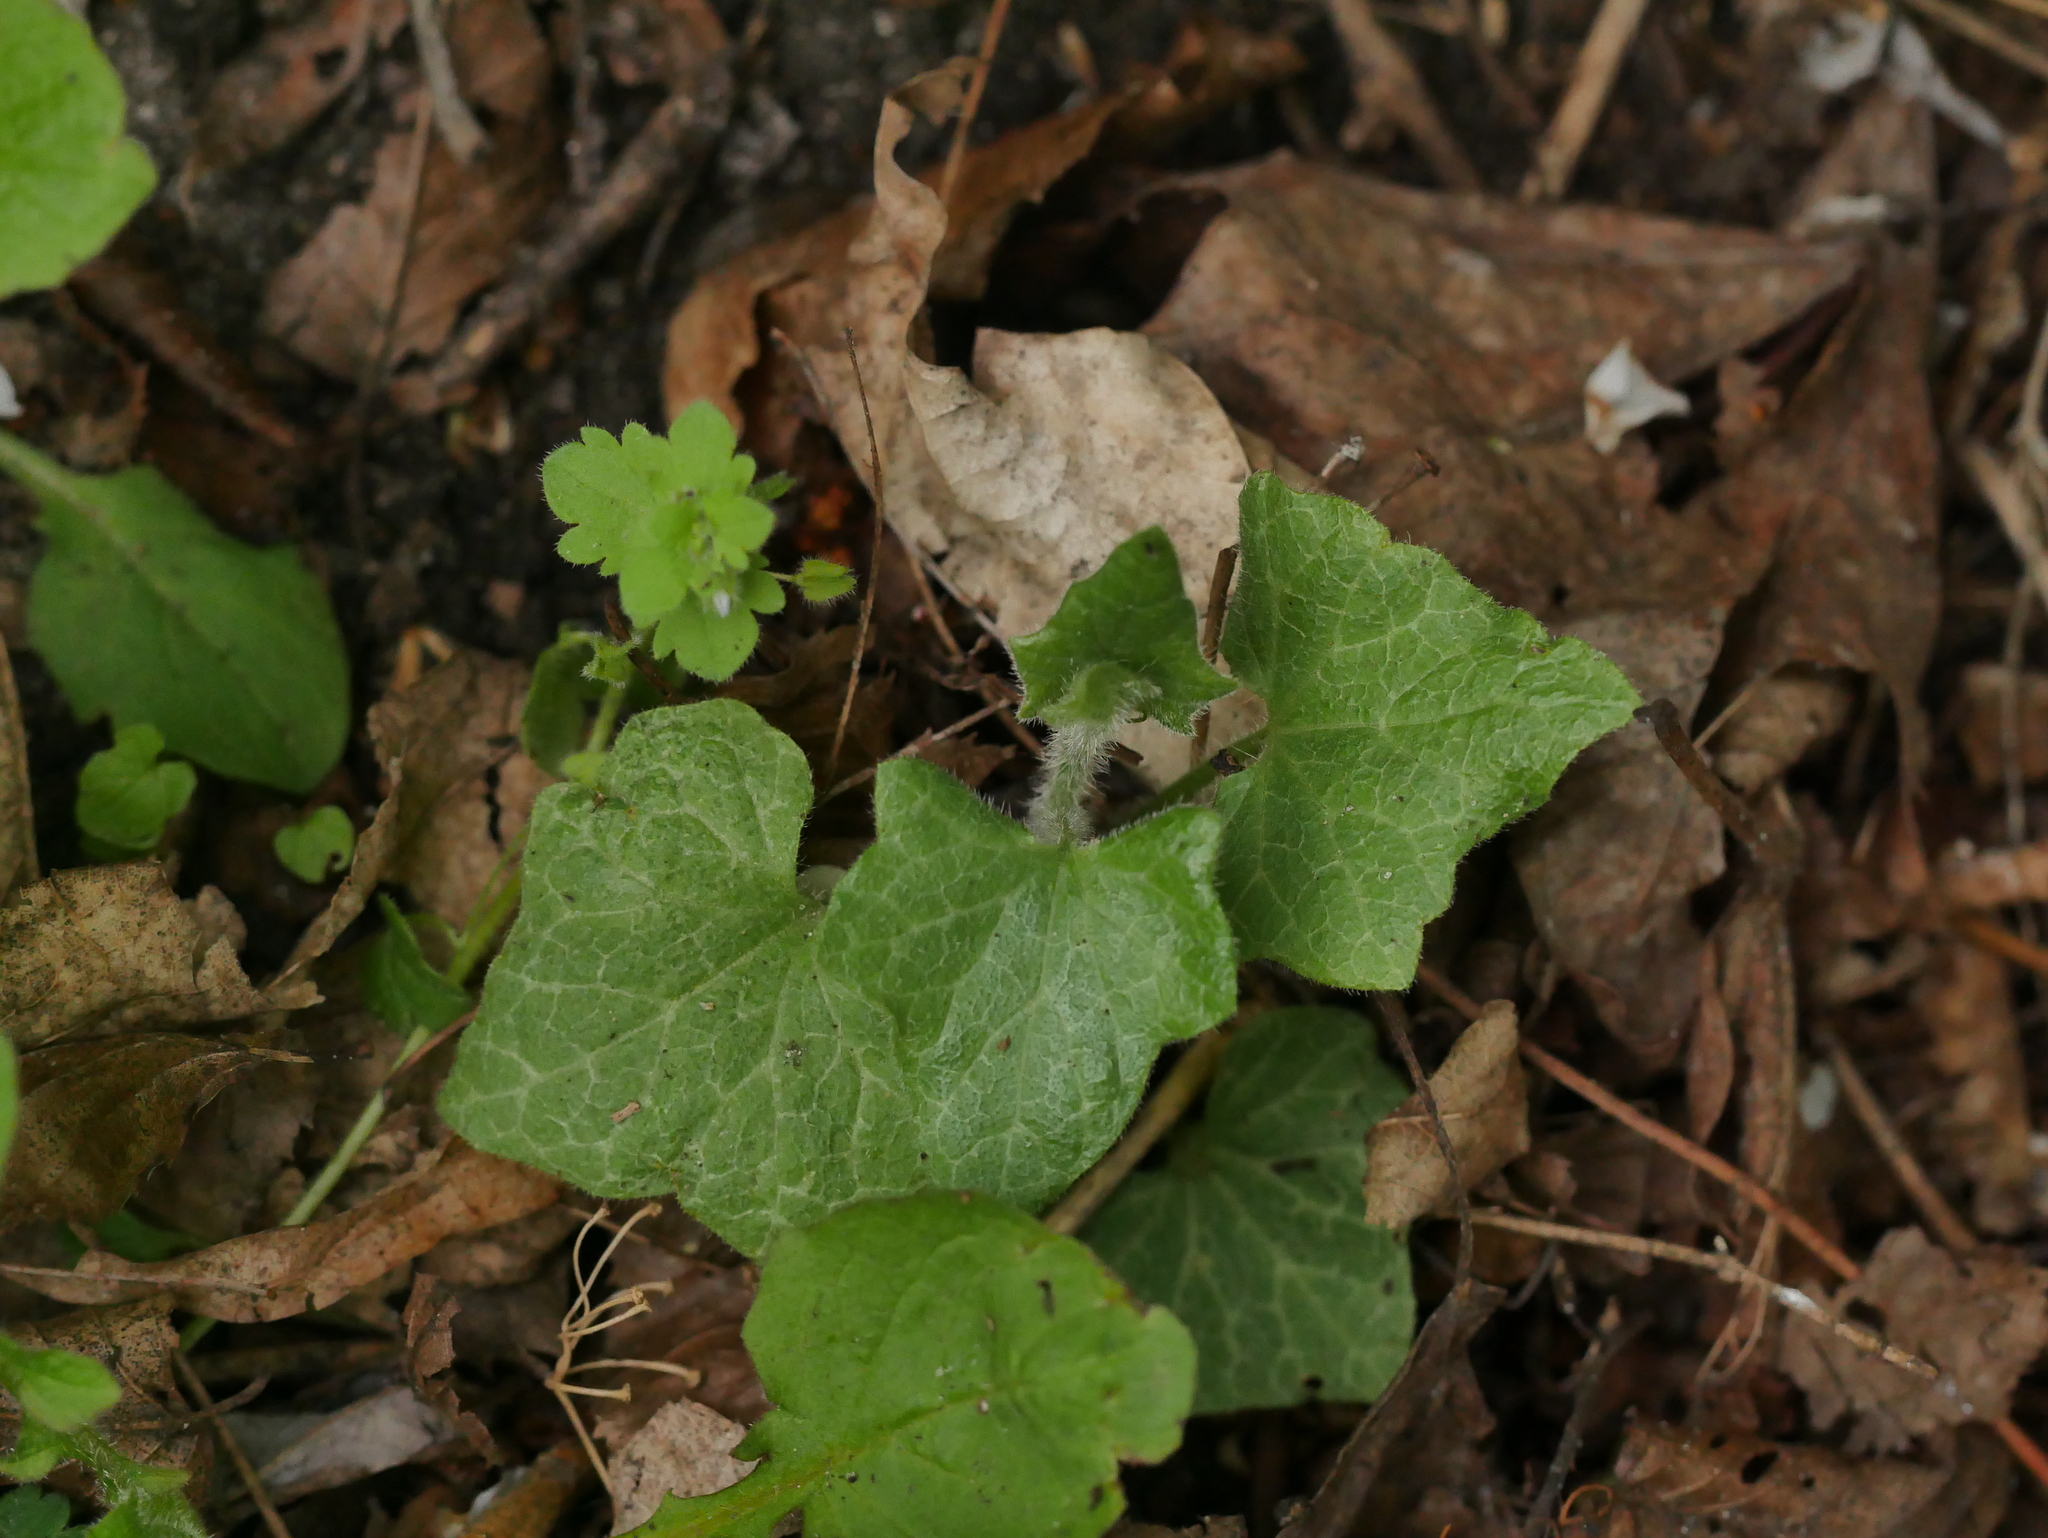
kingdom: Plantae
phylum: Tracheophyta
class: Magnoliopsida
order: Cucurbitales
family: Cucurbitaceae
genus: Bryonia
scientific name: Bryonia cretica
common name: Cretan bryony
